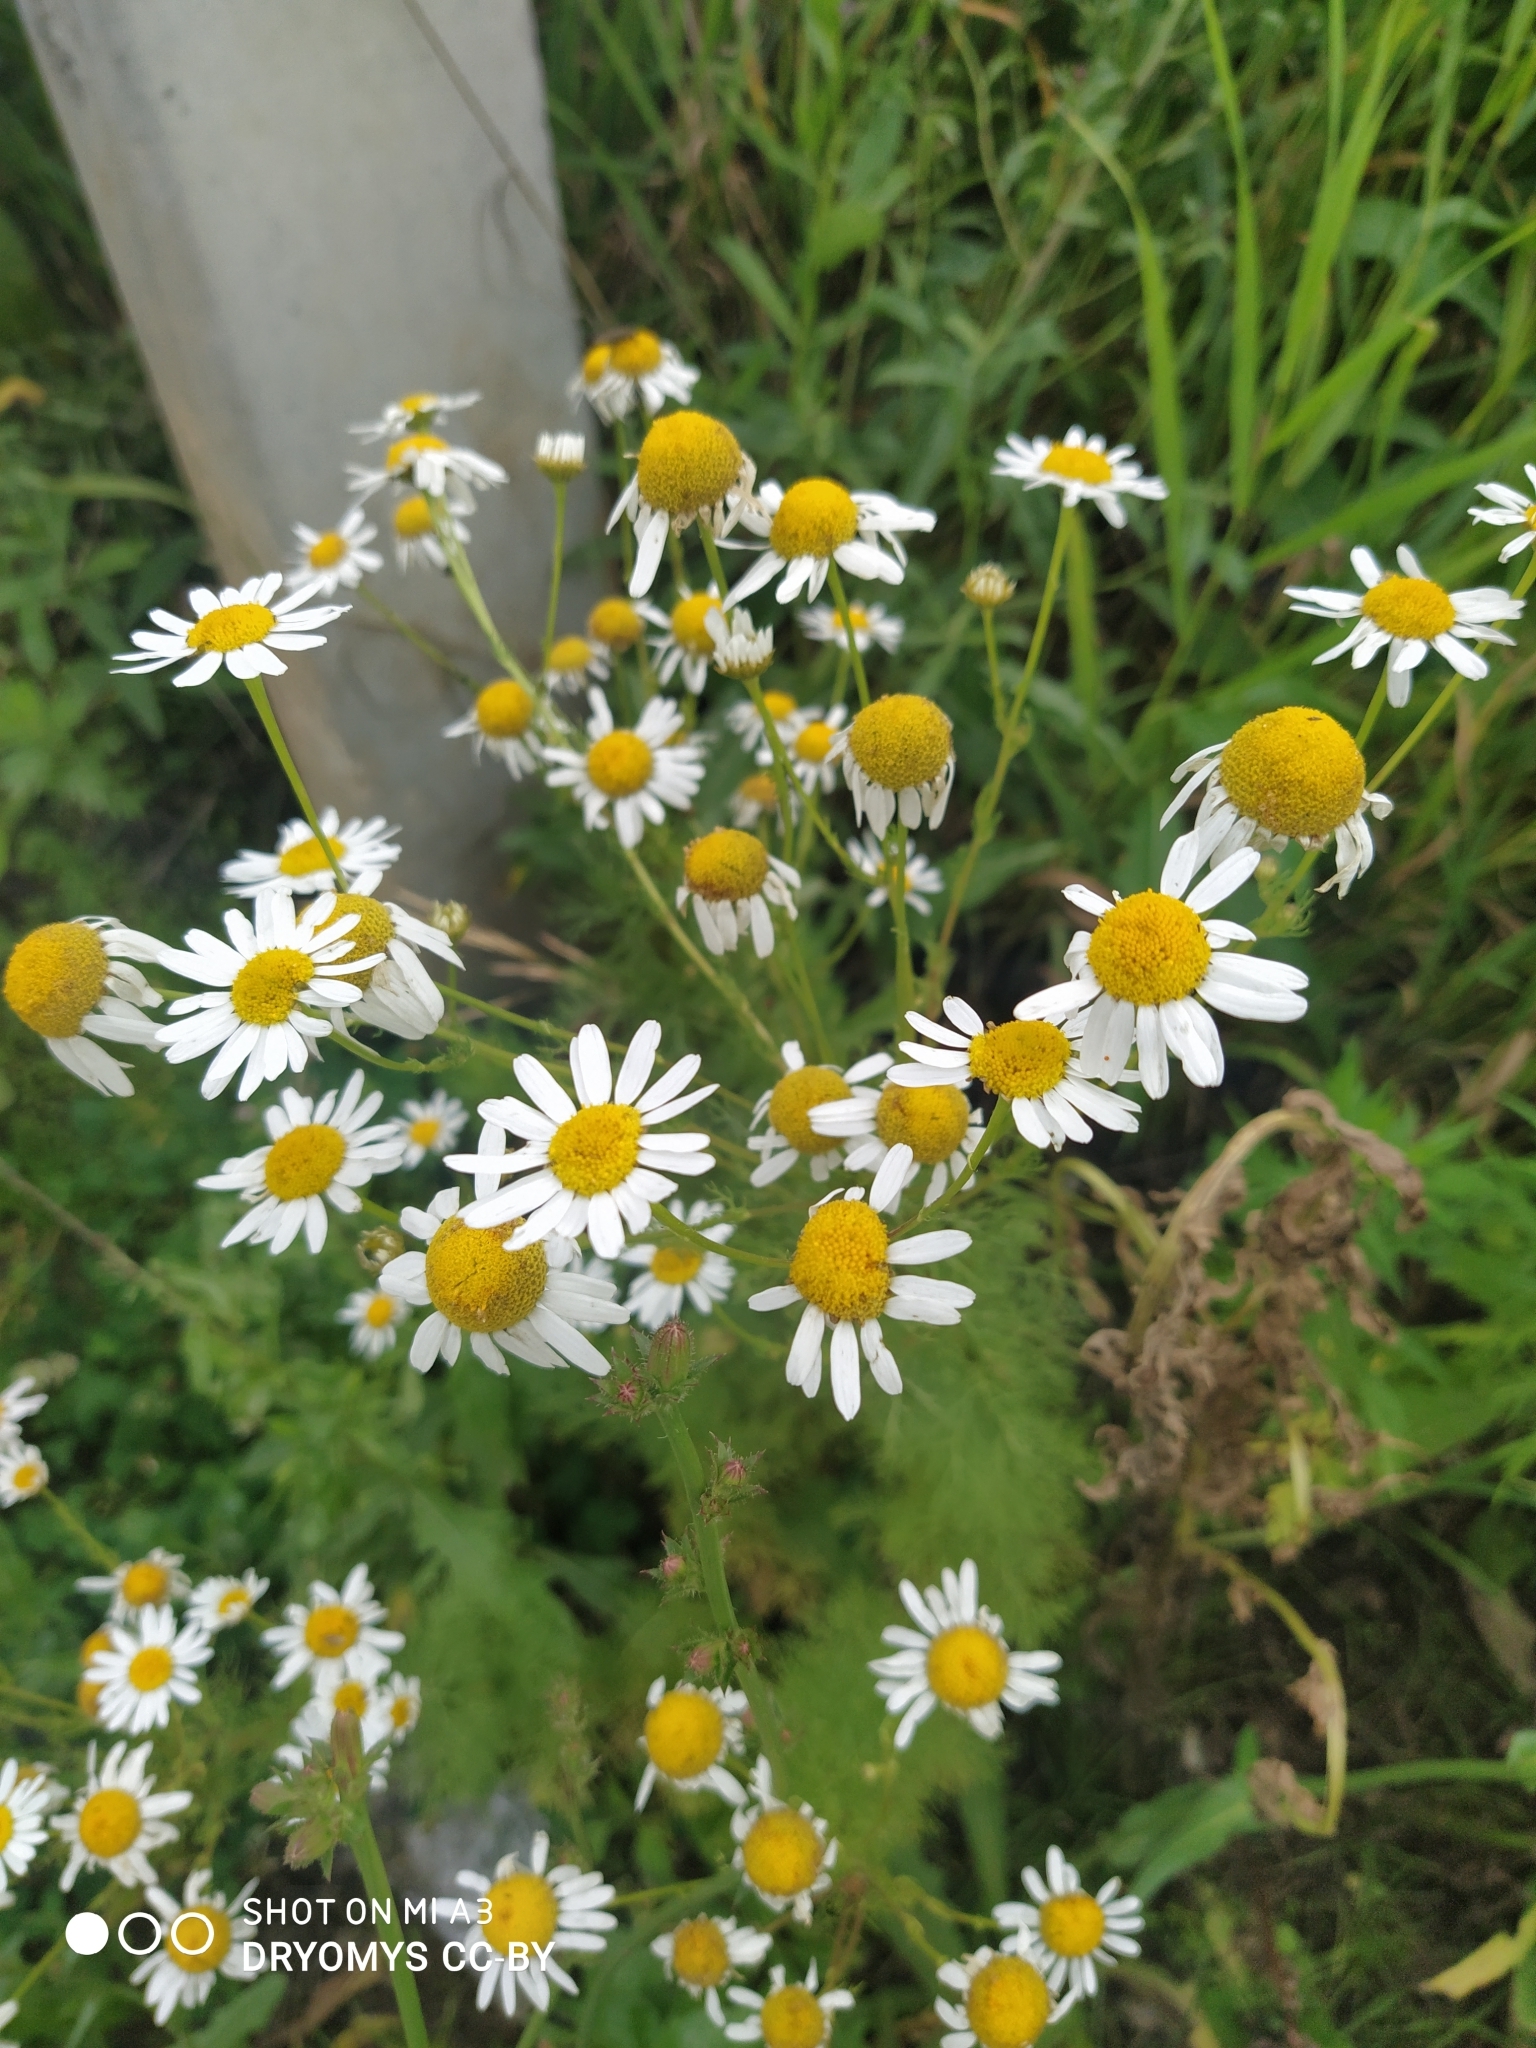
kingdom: Plantae
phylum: Tracheophyta
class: Magnoliopsida
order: Asterales
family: Asteraceae
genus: Tripleurospermum
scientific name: Tripleurospermum inodorum
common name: Scentless mayweed
